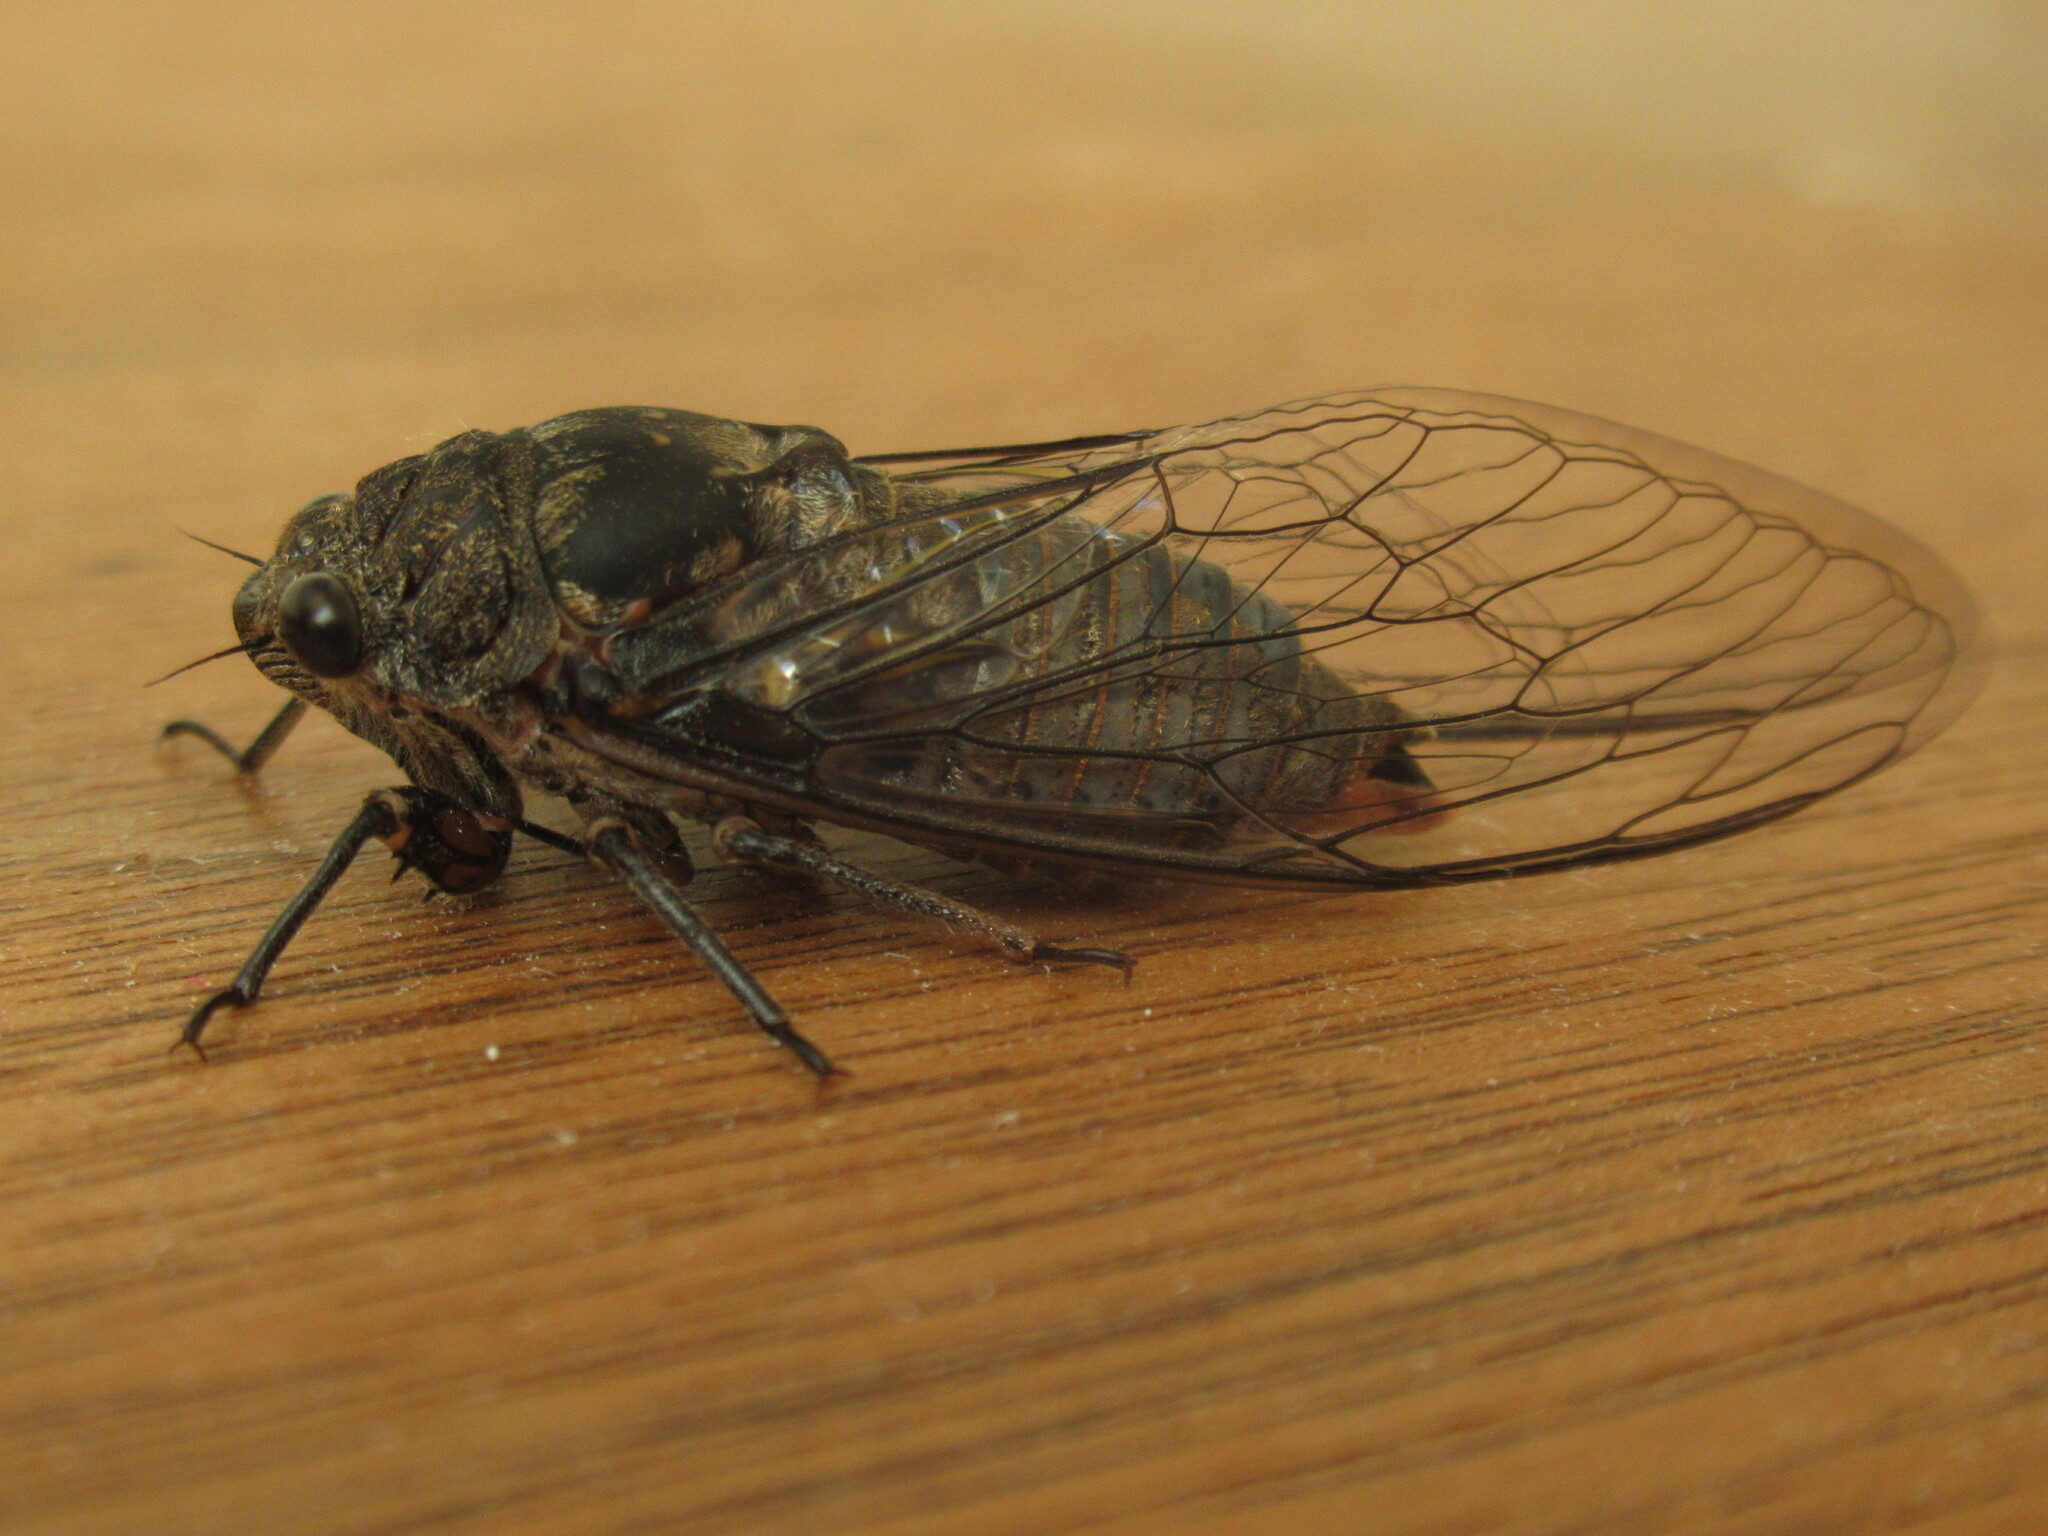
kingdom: Animalia
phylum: Arthropoda
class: Insecta
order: Hemiptera
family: Cicadidae
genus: Okanagana
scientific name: Okanagana tristis
